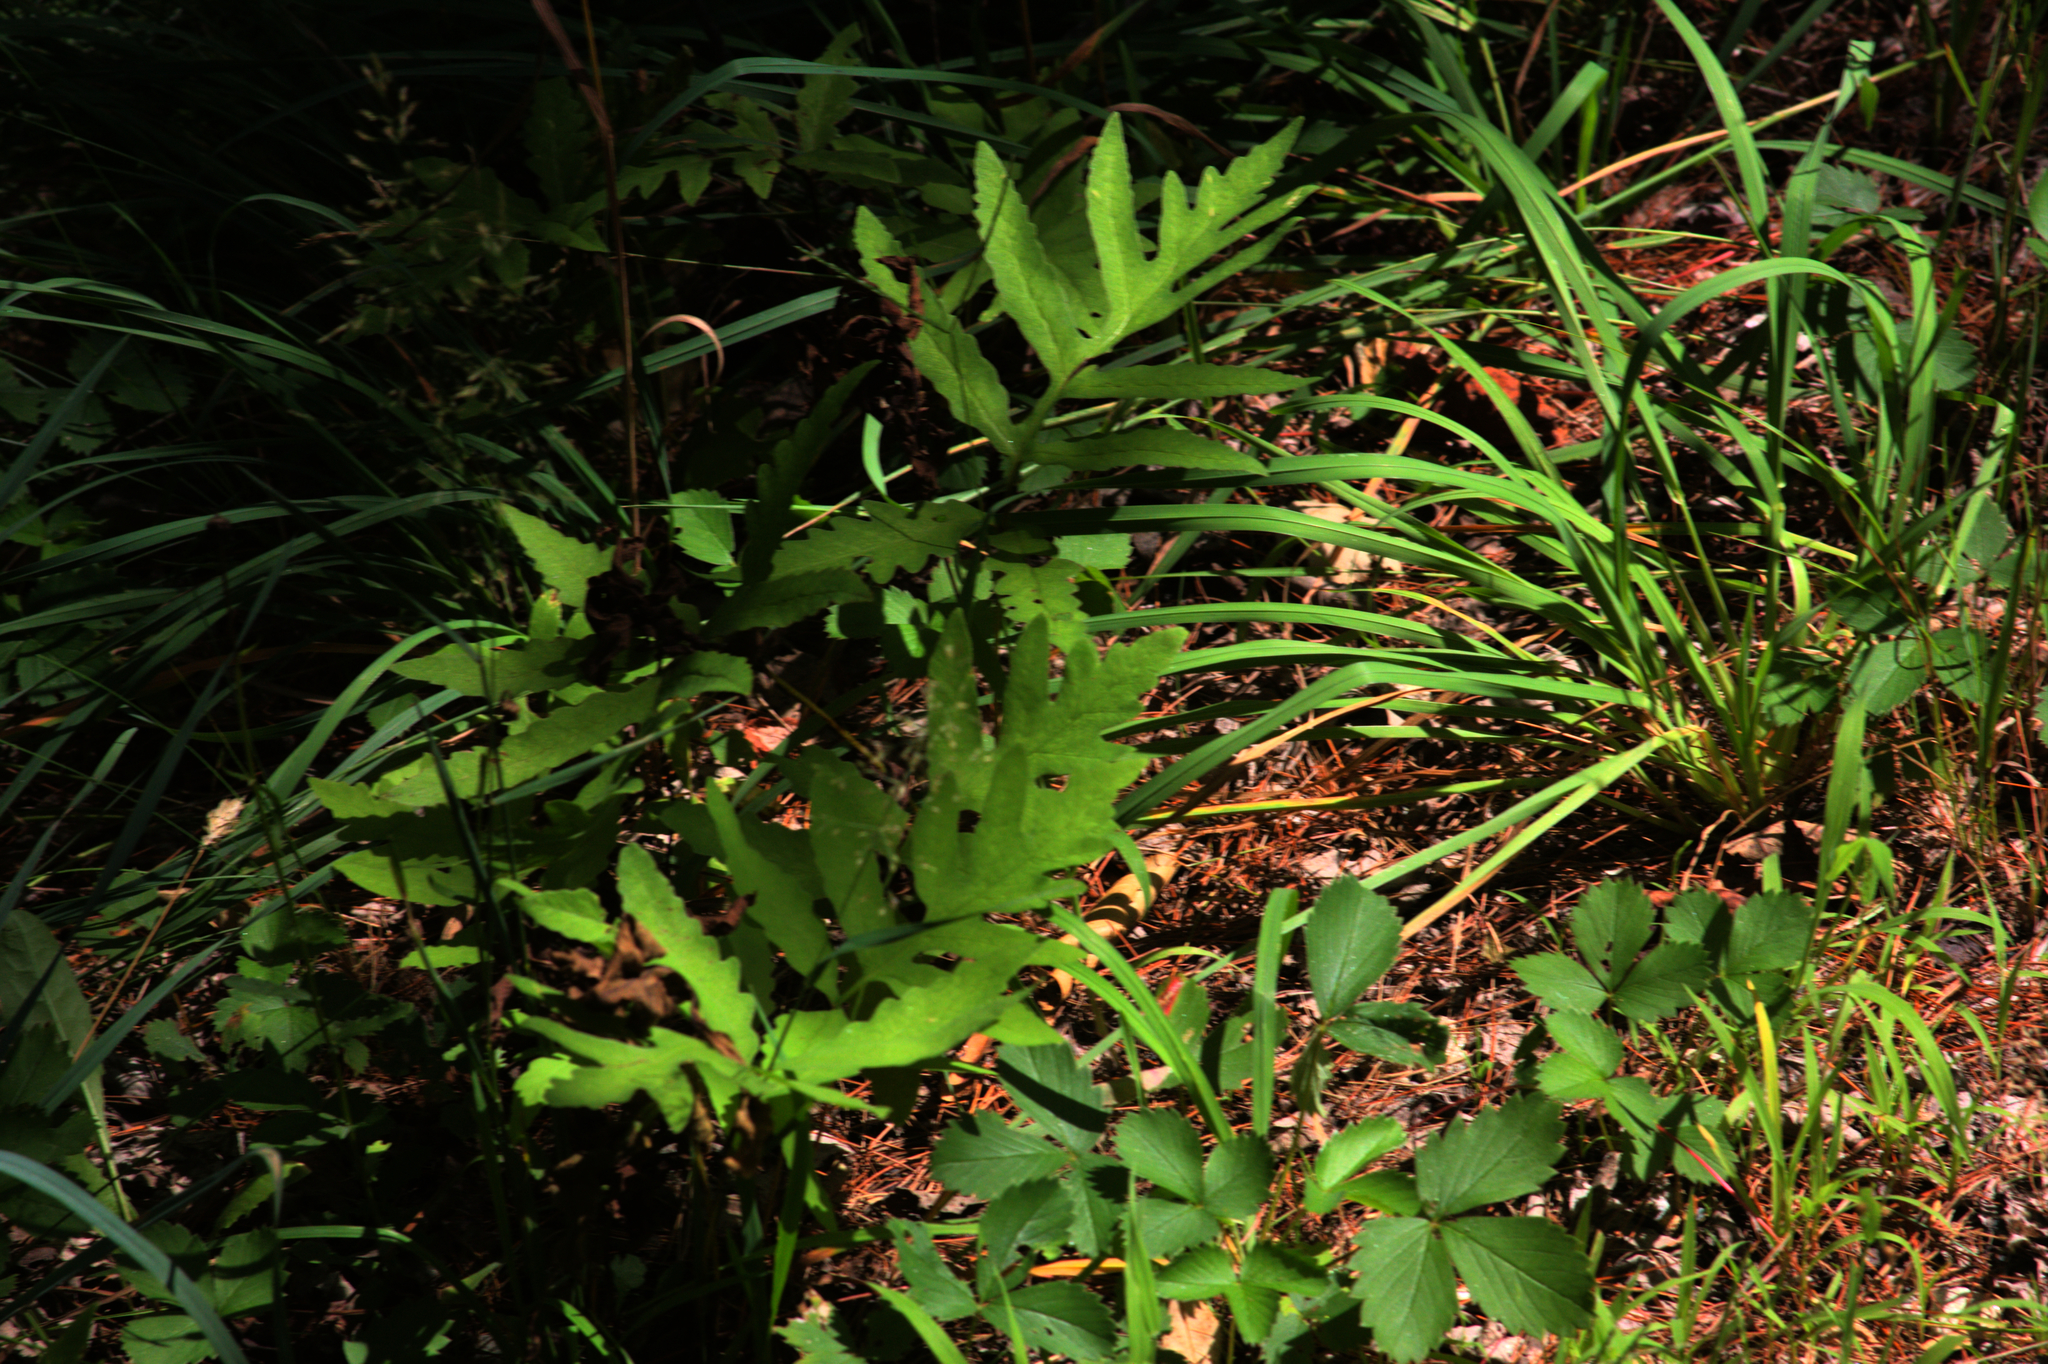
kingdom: Plantae
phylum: Tracheophyta
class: Polypodiopsida
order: Polypodiales
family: Onocleaceae
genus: Onoclea
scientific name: Onoclea sensibilis
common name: Sensitive fern
